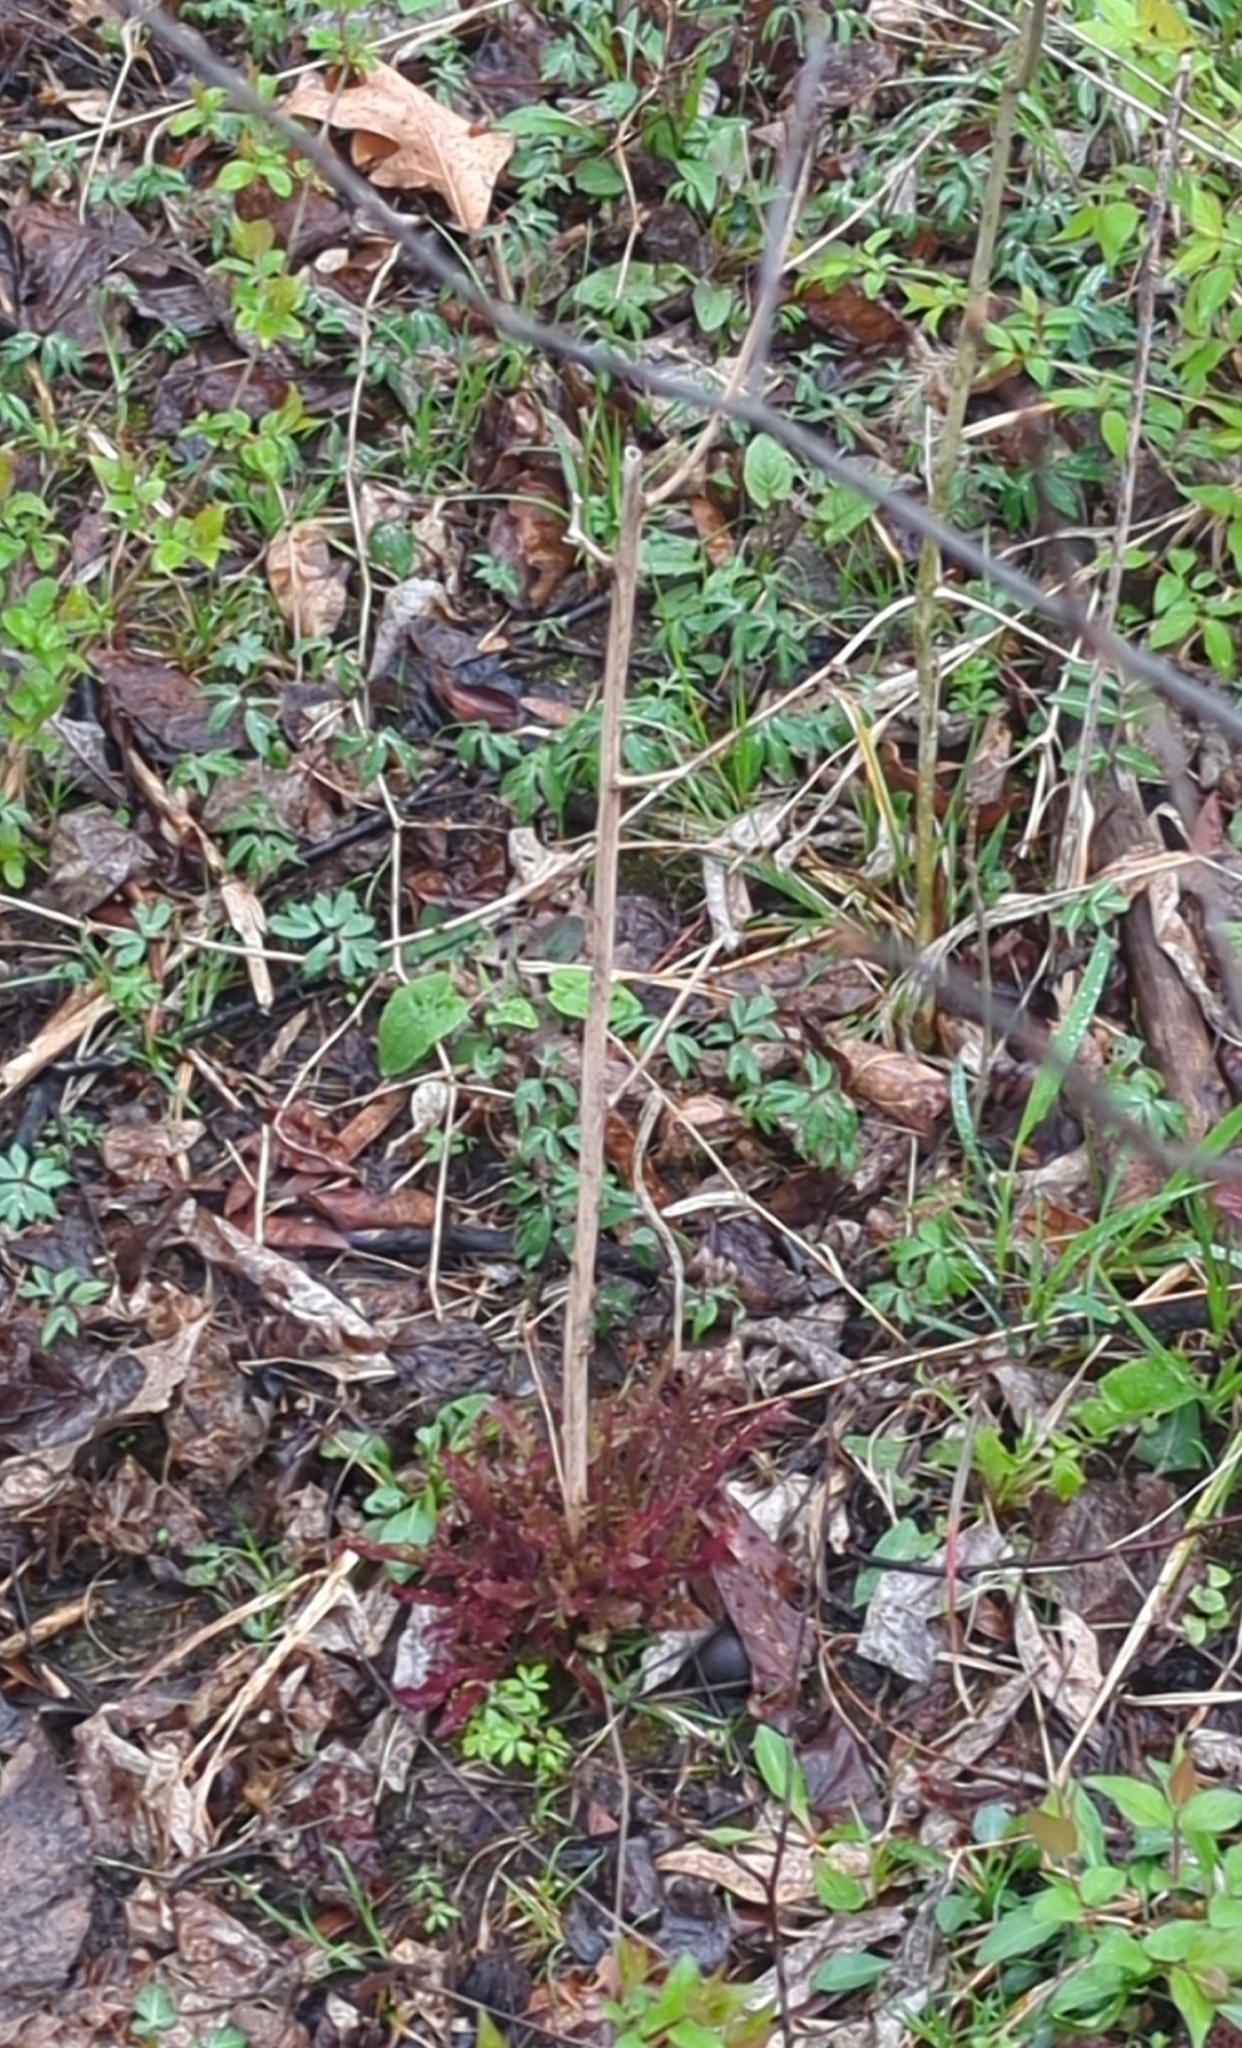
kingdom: Plantae
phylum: Tracheophyta
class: Magnoliopsida
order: Lamiales
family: Orobanchaceae
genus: Dasistoma
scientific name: Dasistoma macrophyllum
